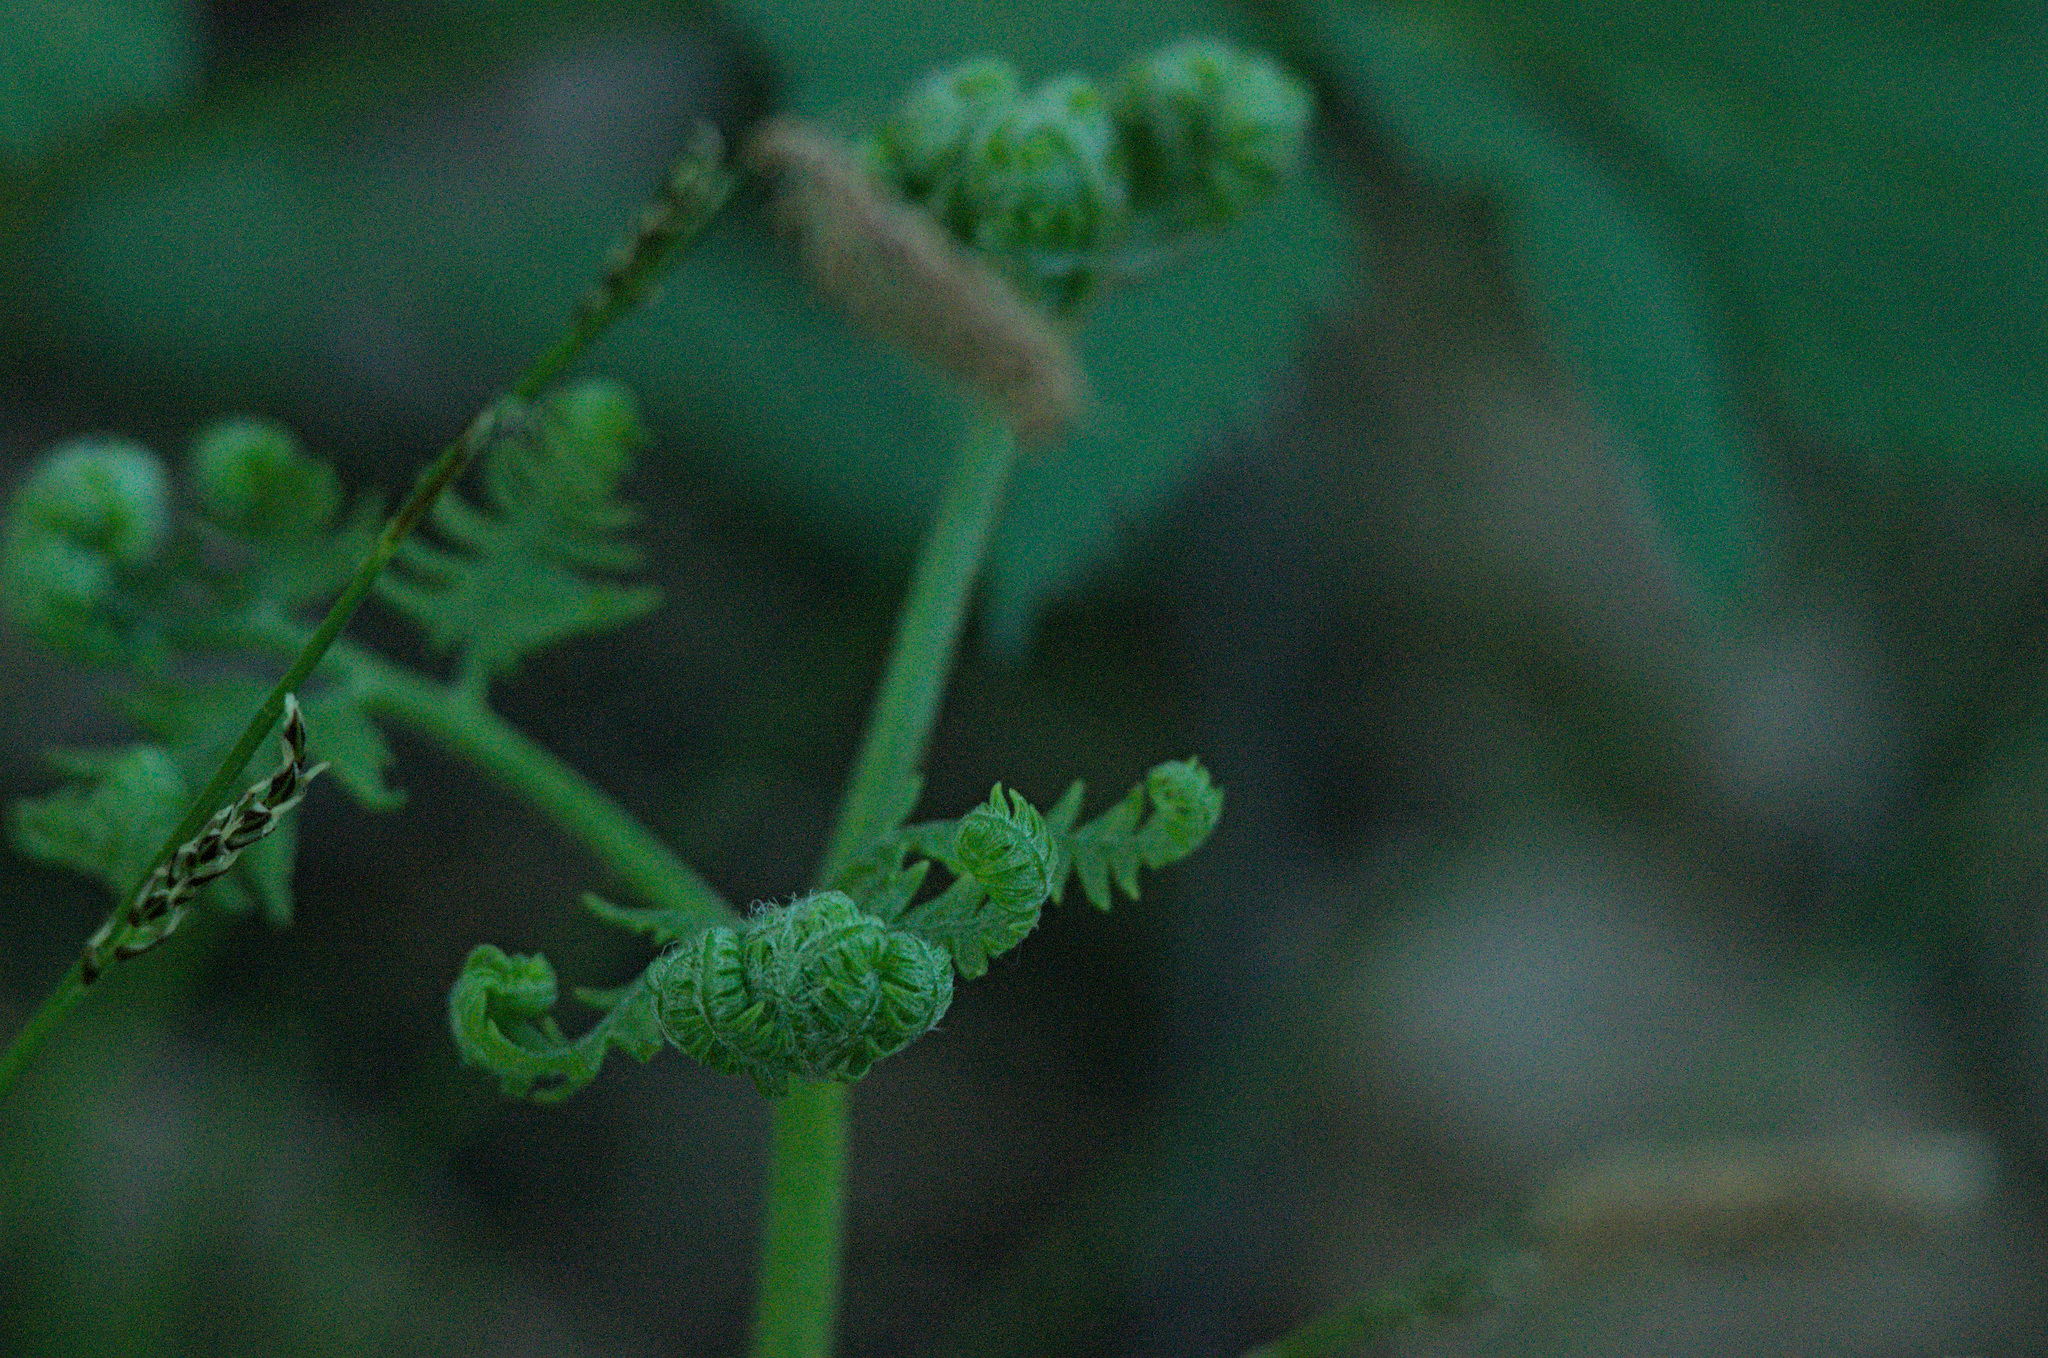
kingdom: Plantae
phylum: Tracheophyta
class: Polypodiopsida
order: Polypodiales
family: Dennstaedtiaceae
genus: Pteridium
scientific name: Pteridium aquilinum
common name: Bracken
